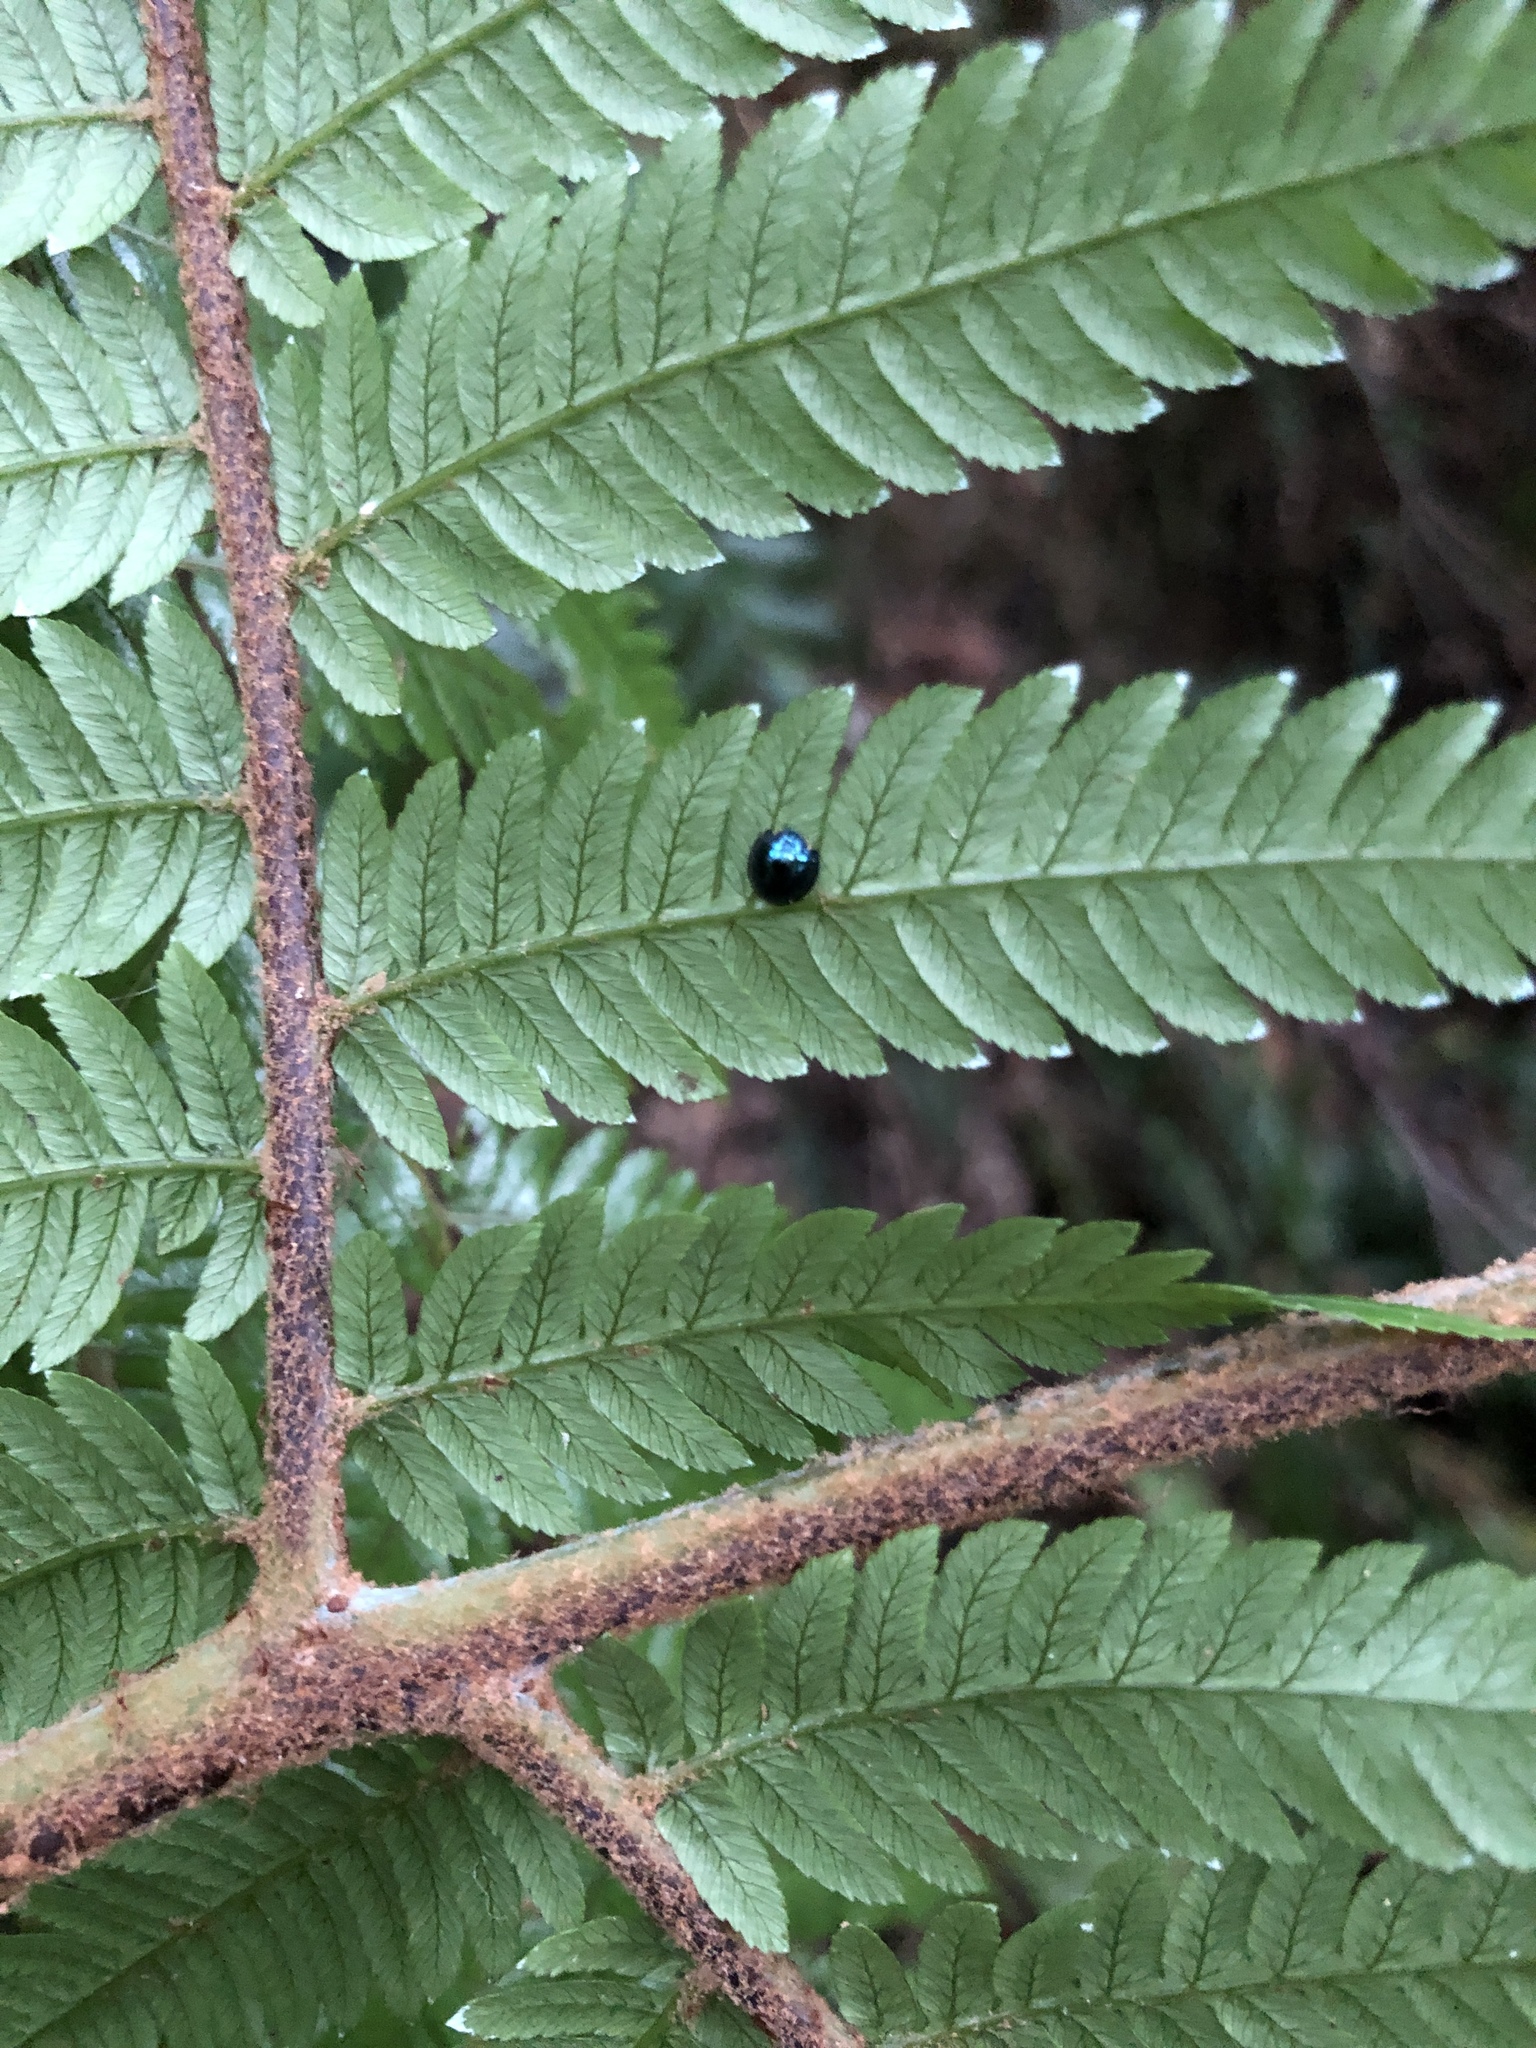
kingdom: Animalia
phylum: Arthropoda
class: Insecta
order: Coleoptera
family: Coccinellidae
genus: Halmus
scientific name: Halmus chalybeus
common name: Steel blue ladybird beetle
